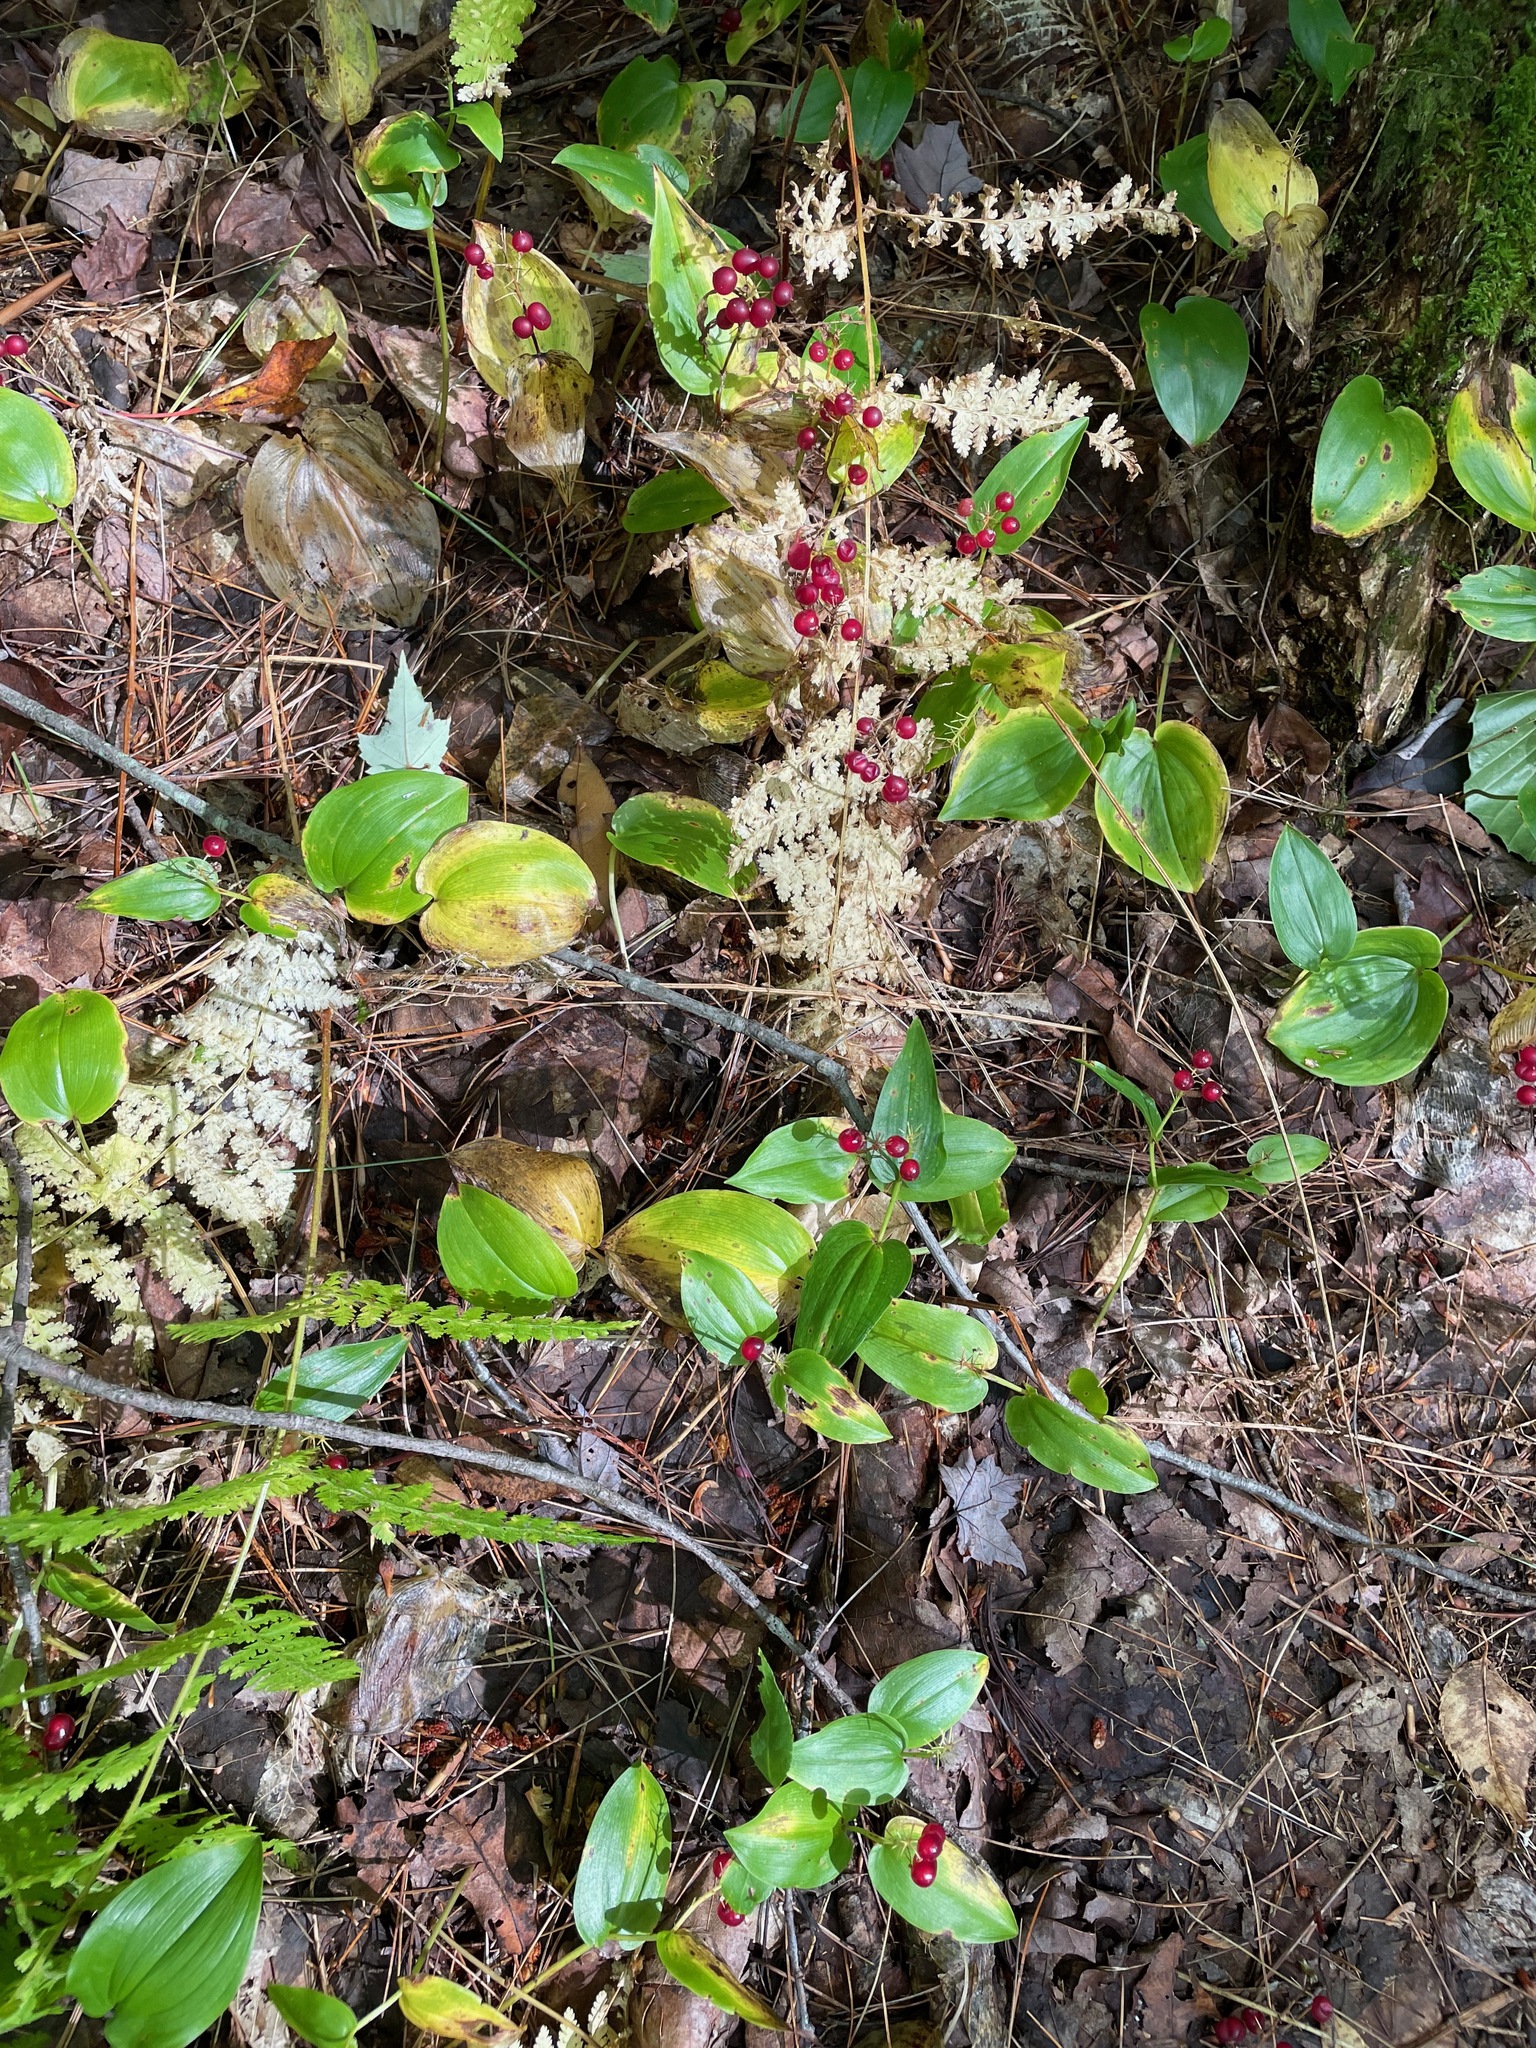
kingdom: Plantae
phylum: Tracheophyta
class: Liliopsida
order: Asparagales
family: Asparagaceae
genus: Maianthemum
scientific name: Maianthemum canadense
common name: False lily-of-the-valley
